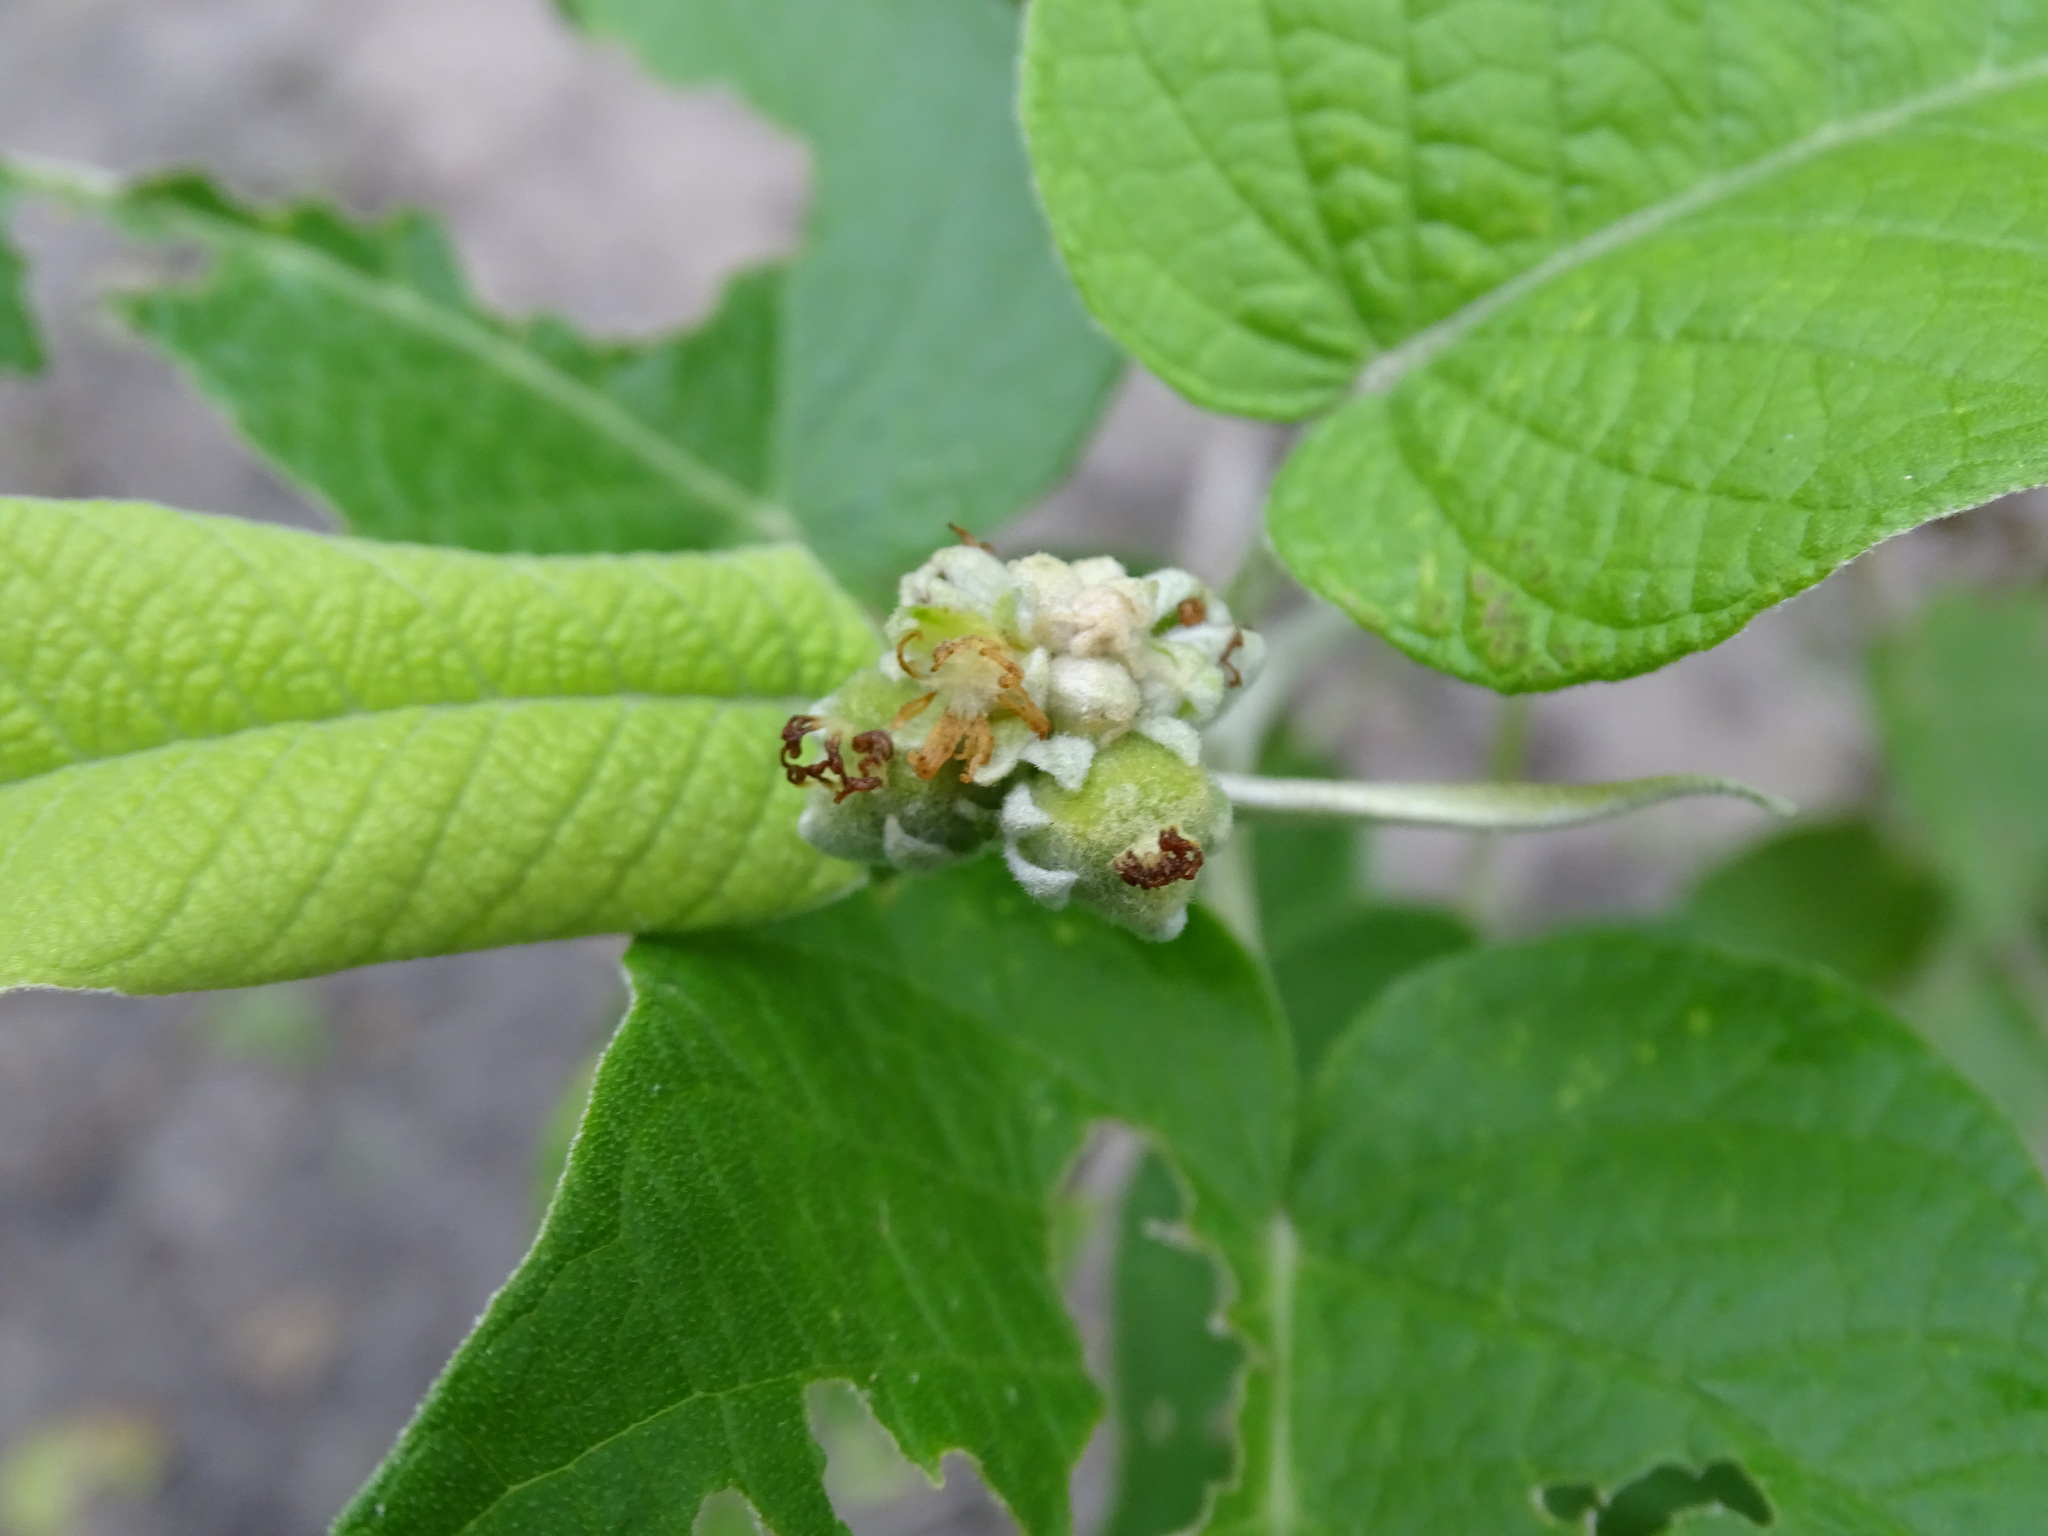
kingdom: Plantae
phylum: Tracheophyta
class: Magnoliopsida
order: Malpighiales
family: Euphorbiaceae
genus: Croton
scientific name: Croton axillaris
